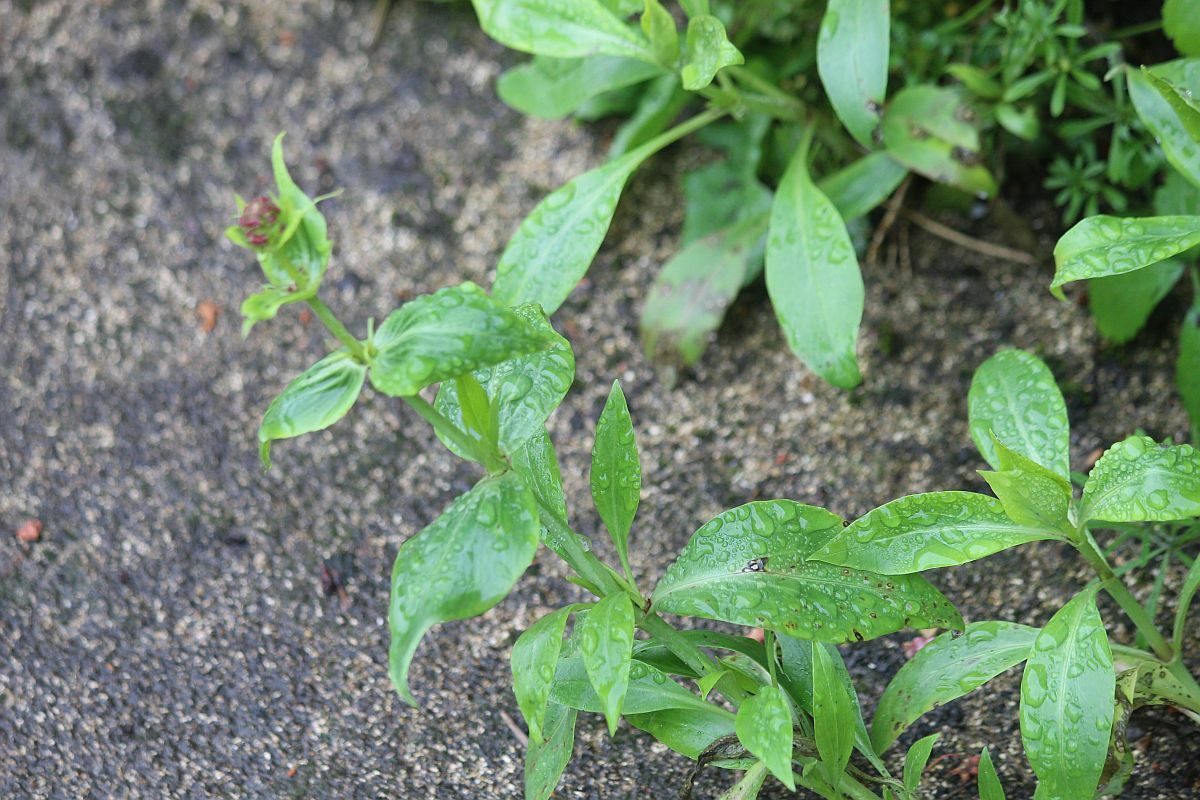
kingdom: Plantae
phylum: Tracheophyta
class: Magnoliopsida
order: Dipsacales
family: Caprifoliaceae
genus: Centranthus
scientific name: Centranthus ruber
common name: Red valerian
